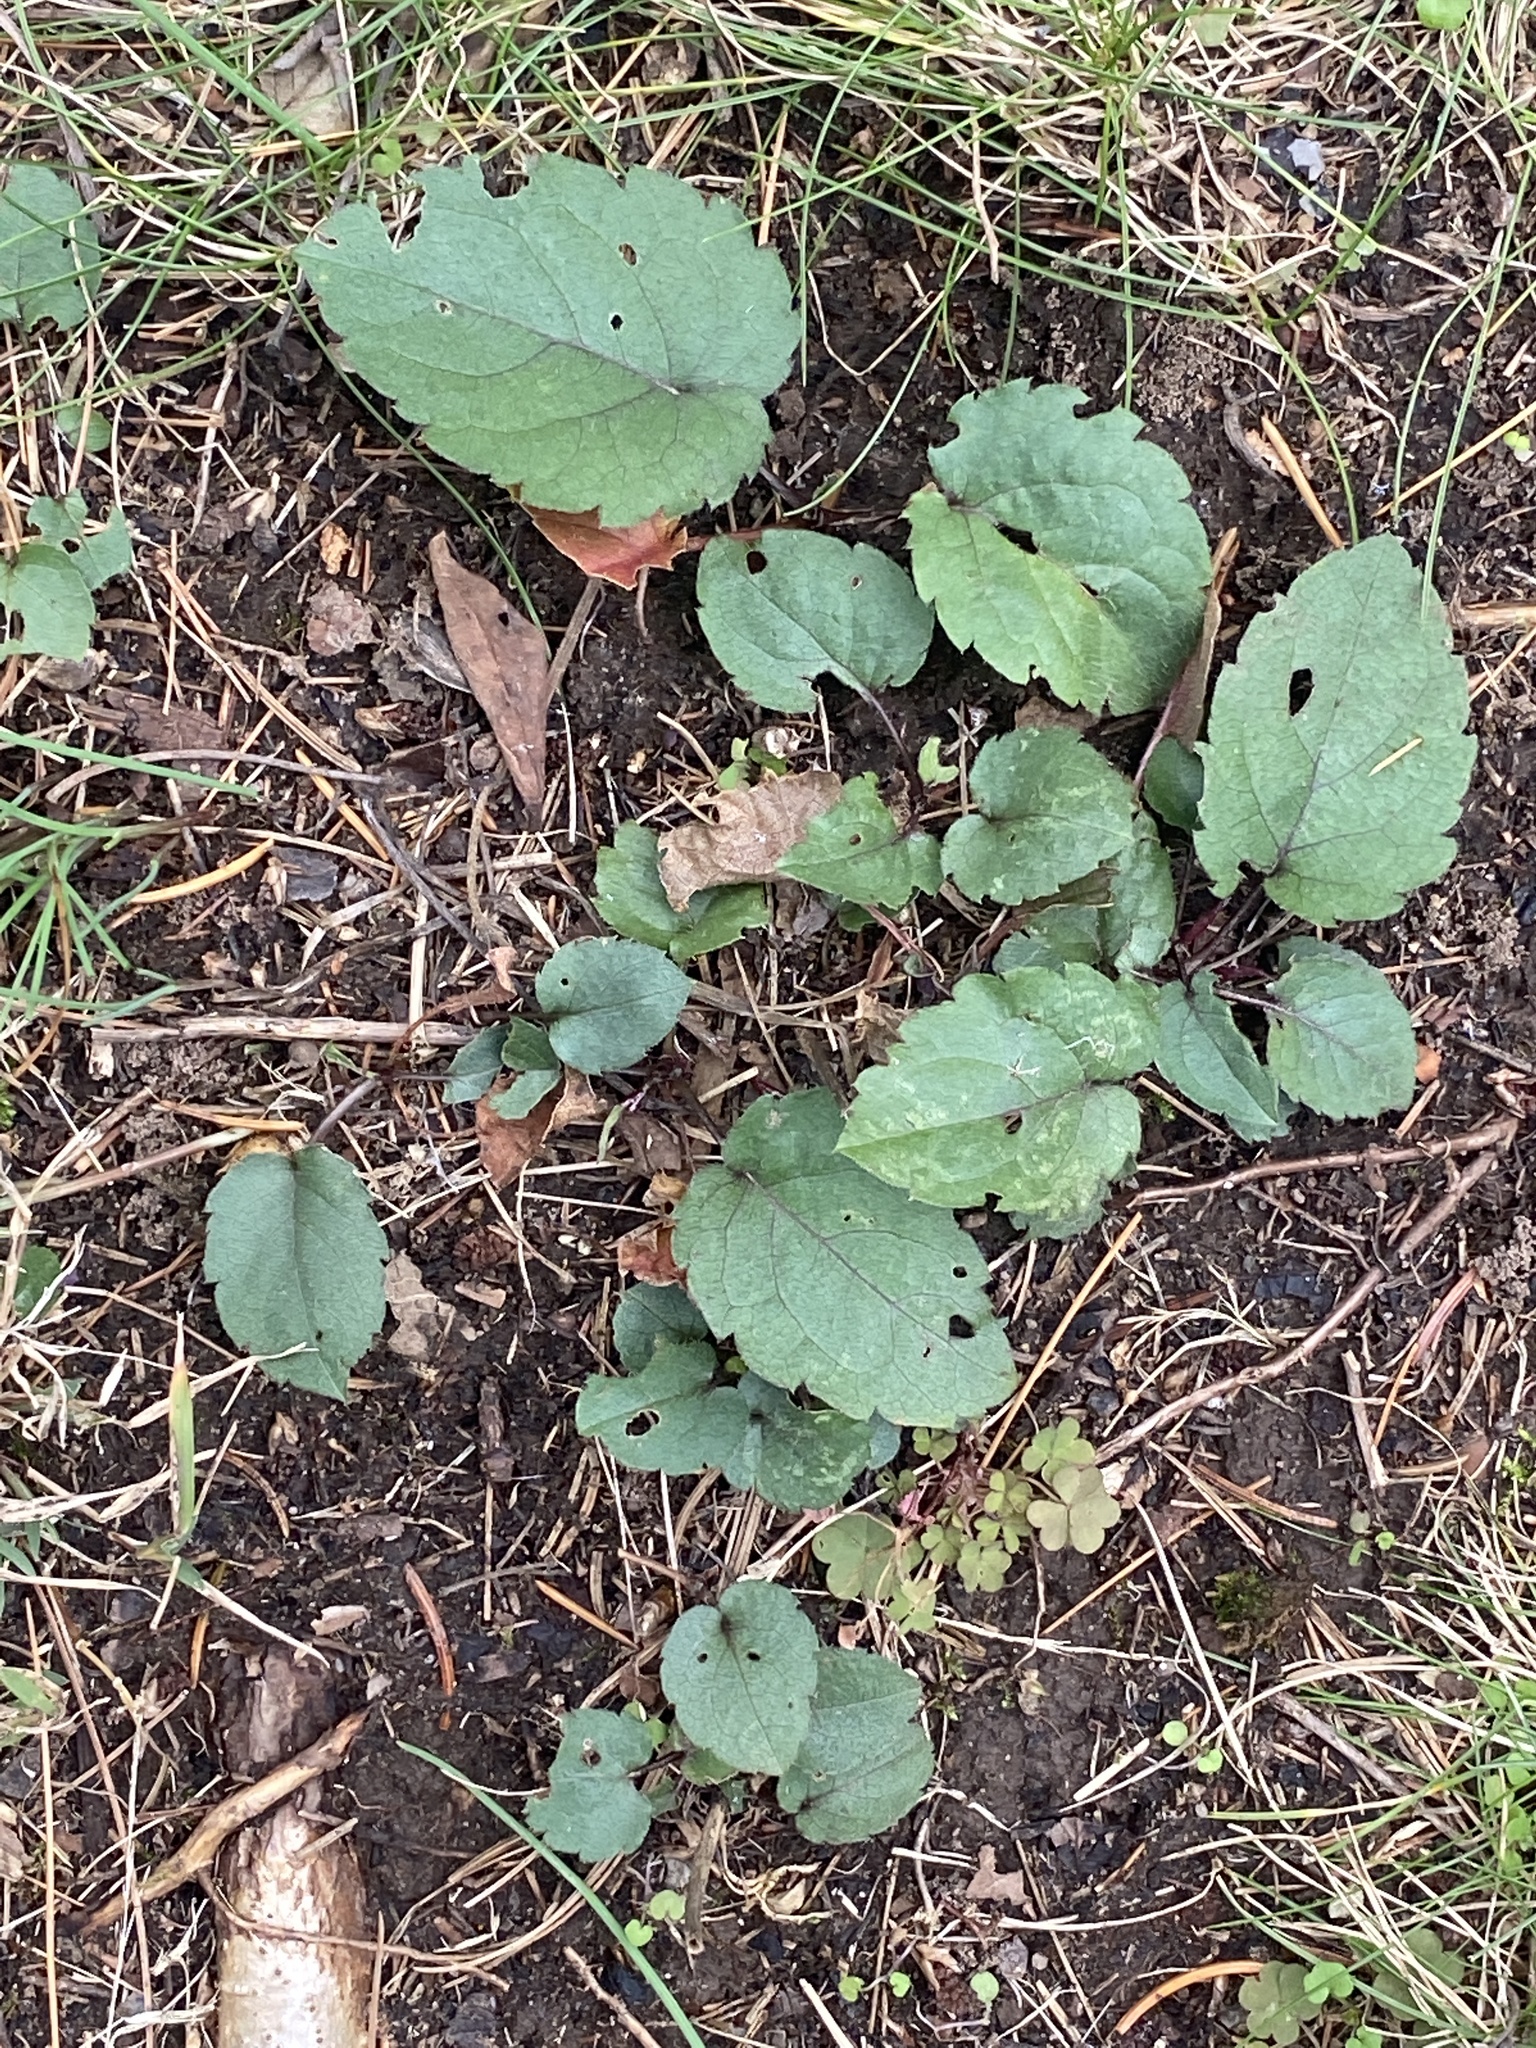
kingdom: Plantae
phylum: Tracheophyta
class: Magnoliopsida
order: Asterales
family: Asteraceae
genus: Eurybia
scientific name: Eurybia divaricata
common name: White wood aster
